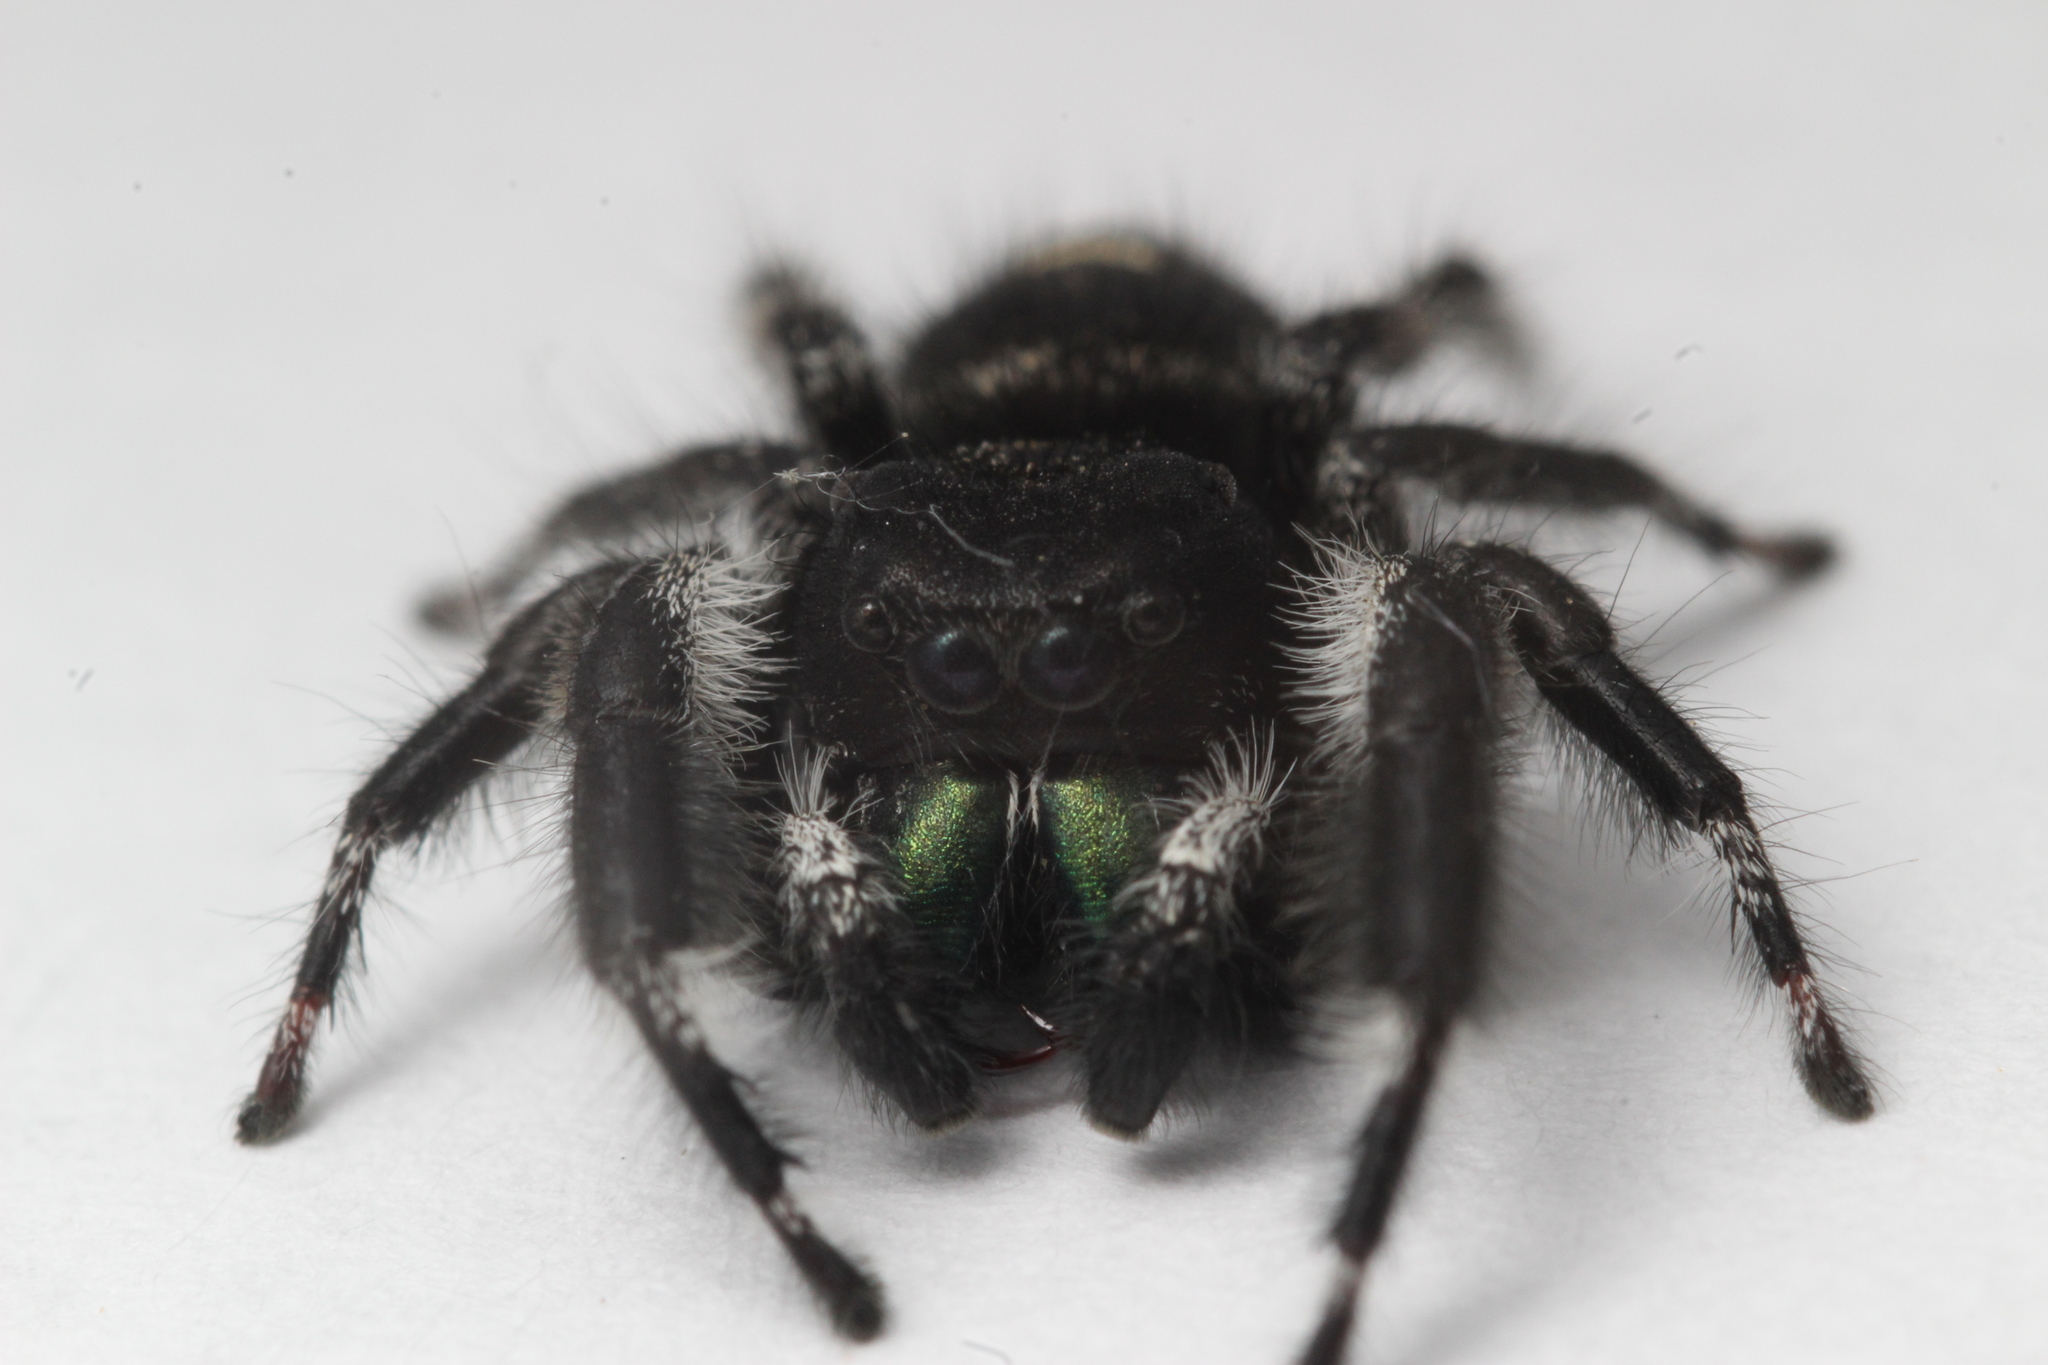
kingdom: Animalia
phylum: Arthropoda
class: Arachnida
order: Araneae
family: Salticidae
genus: Phidippus
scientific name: Phidippus audax
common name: Bold jumper
